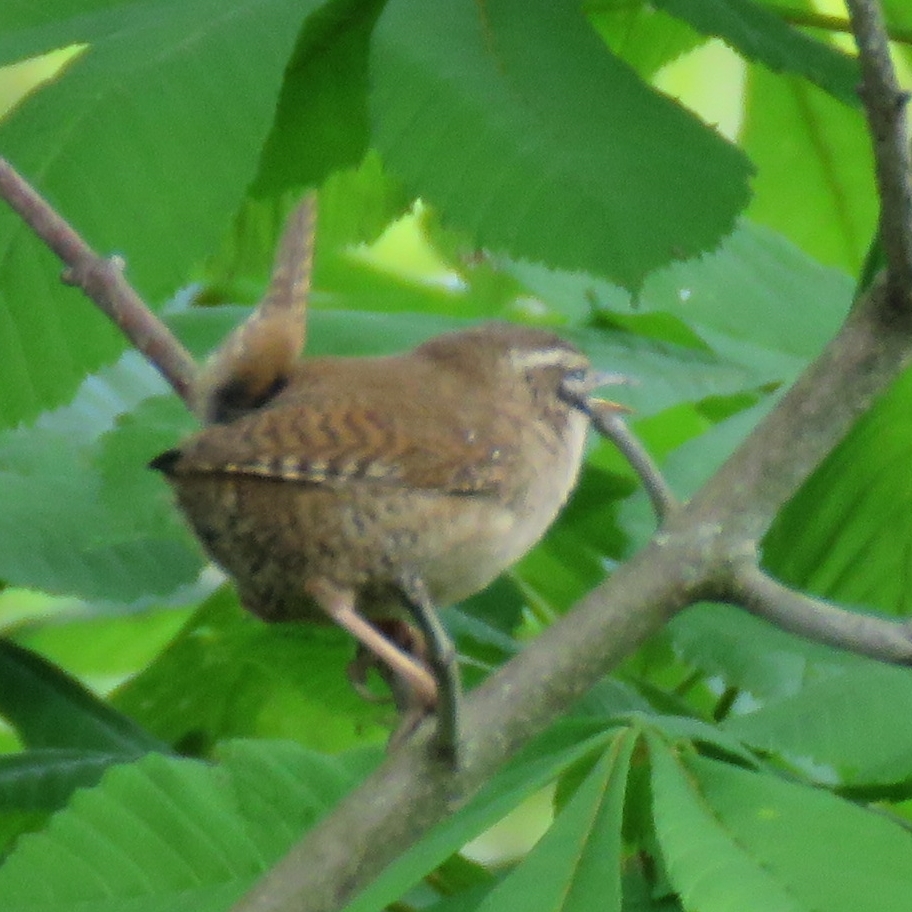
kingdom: Animalia
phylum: Chordata
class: Aves
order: Passeriformes
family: Troglodytidae
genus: Troglodytes
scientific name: Troglodytes troglodytes
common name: Eurasian wren
